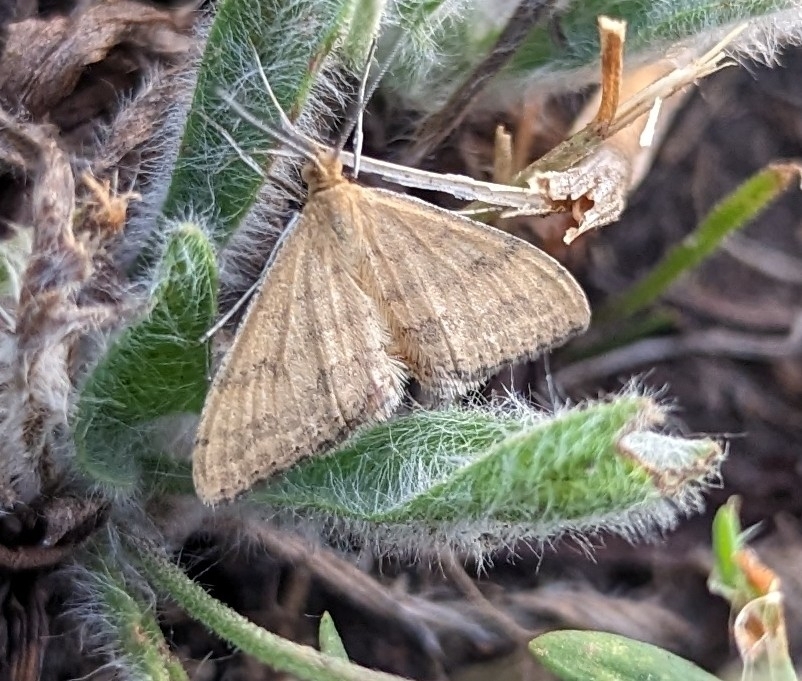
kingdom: Animalia
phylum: Arthropoda
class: Insecta
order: Lepidoptera
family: Geometridae
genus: Scopula
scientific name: Scopula rubraria
